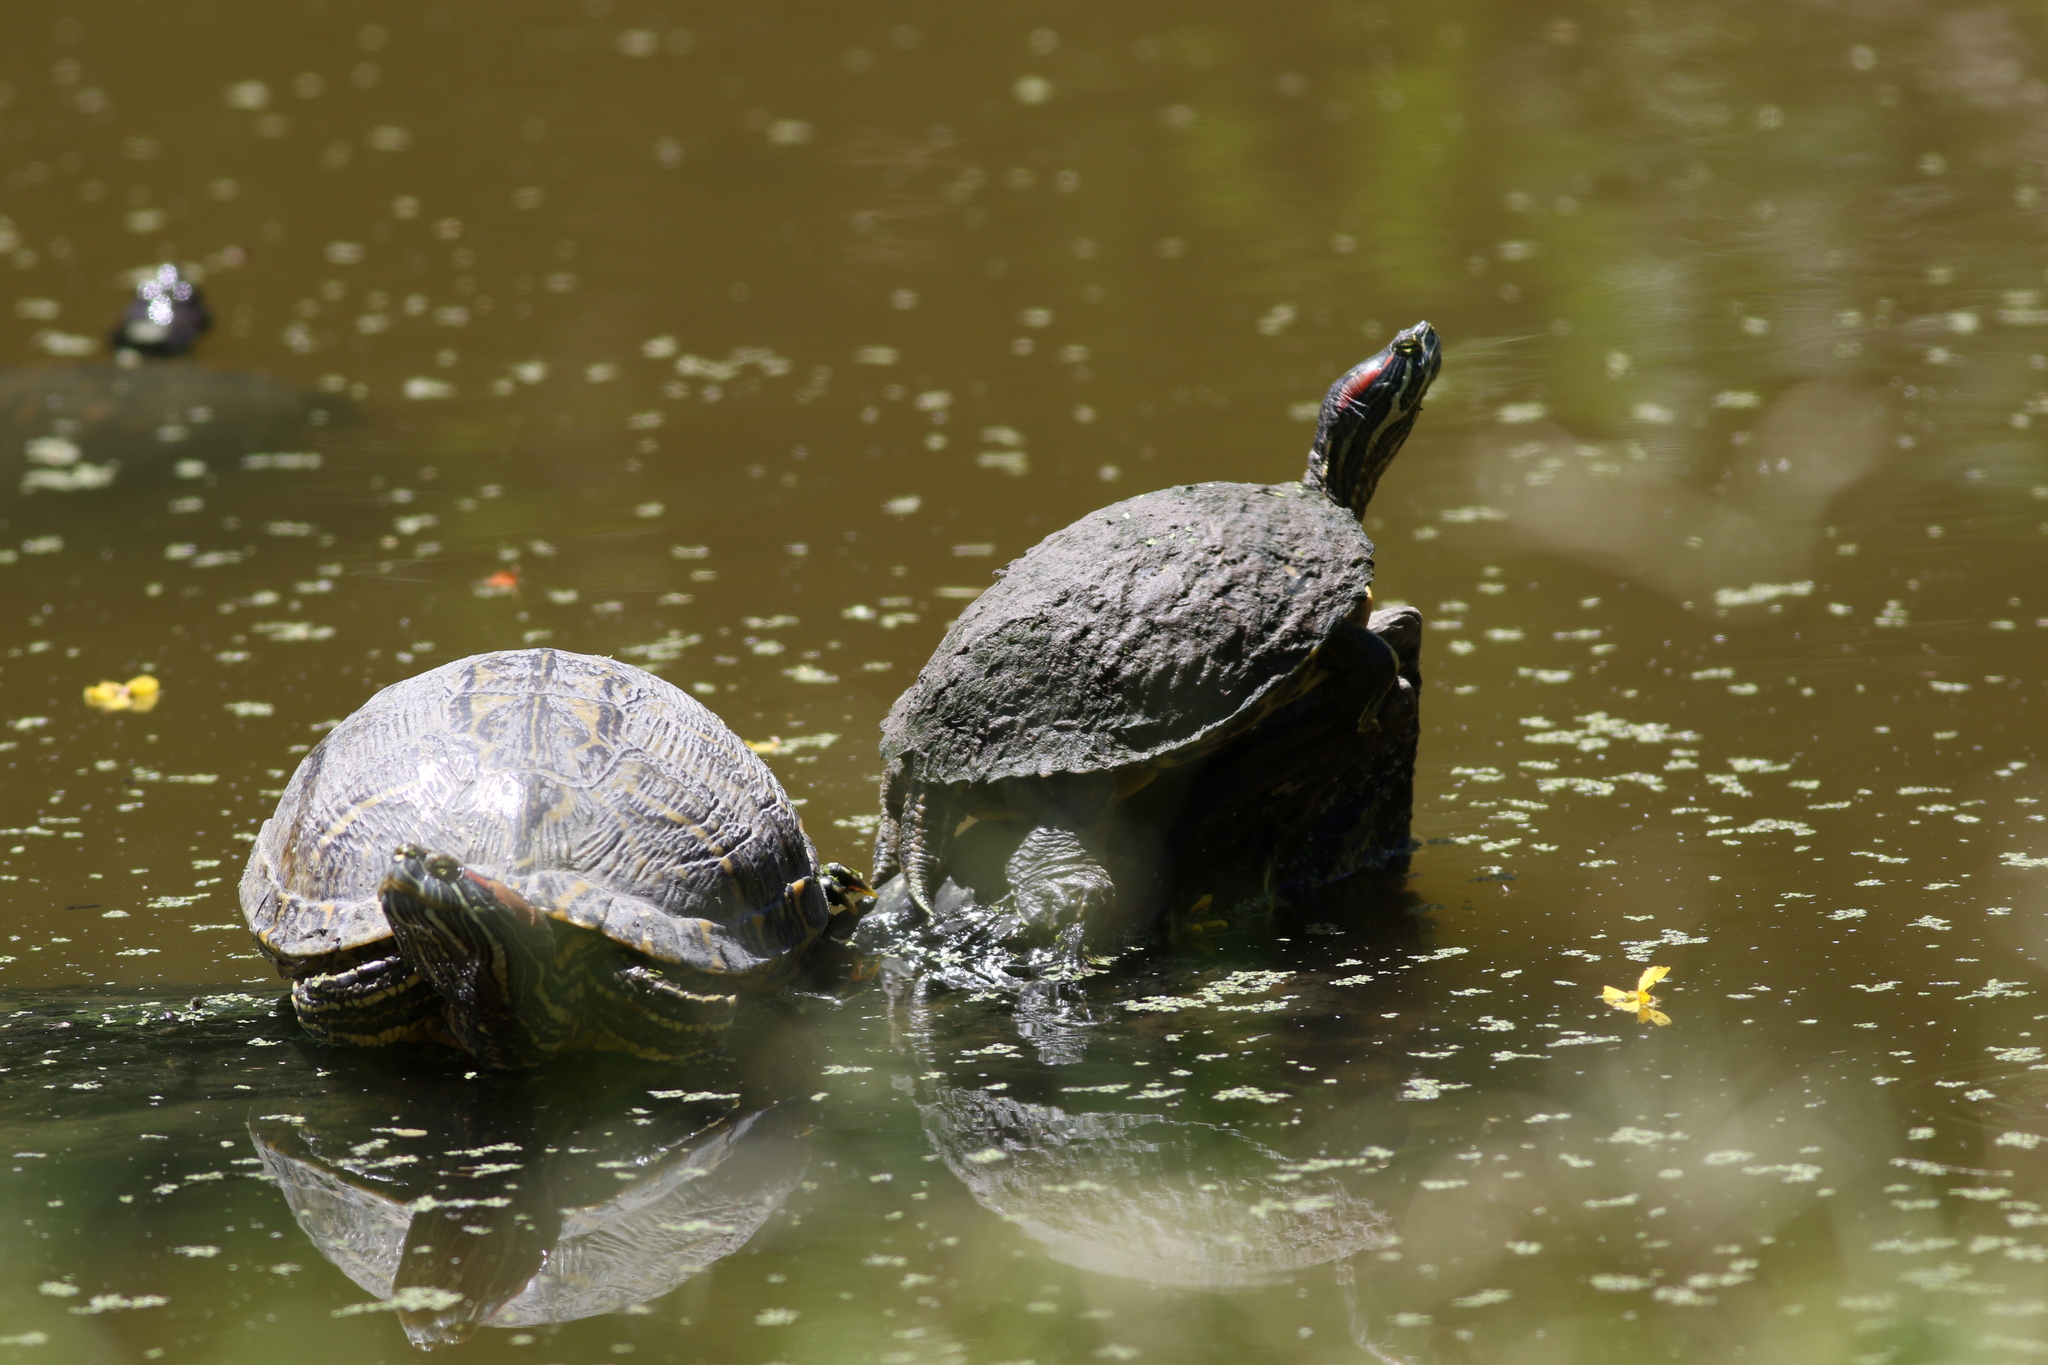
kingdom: Animalia
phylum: Chordata
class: Testudines
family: Emydidae
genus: Trachemys
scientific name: Trachemys scripta
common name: Slider
